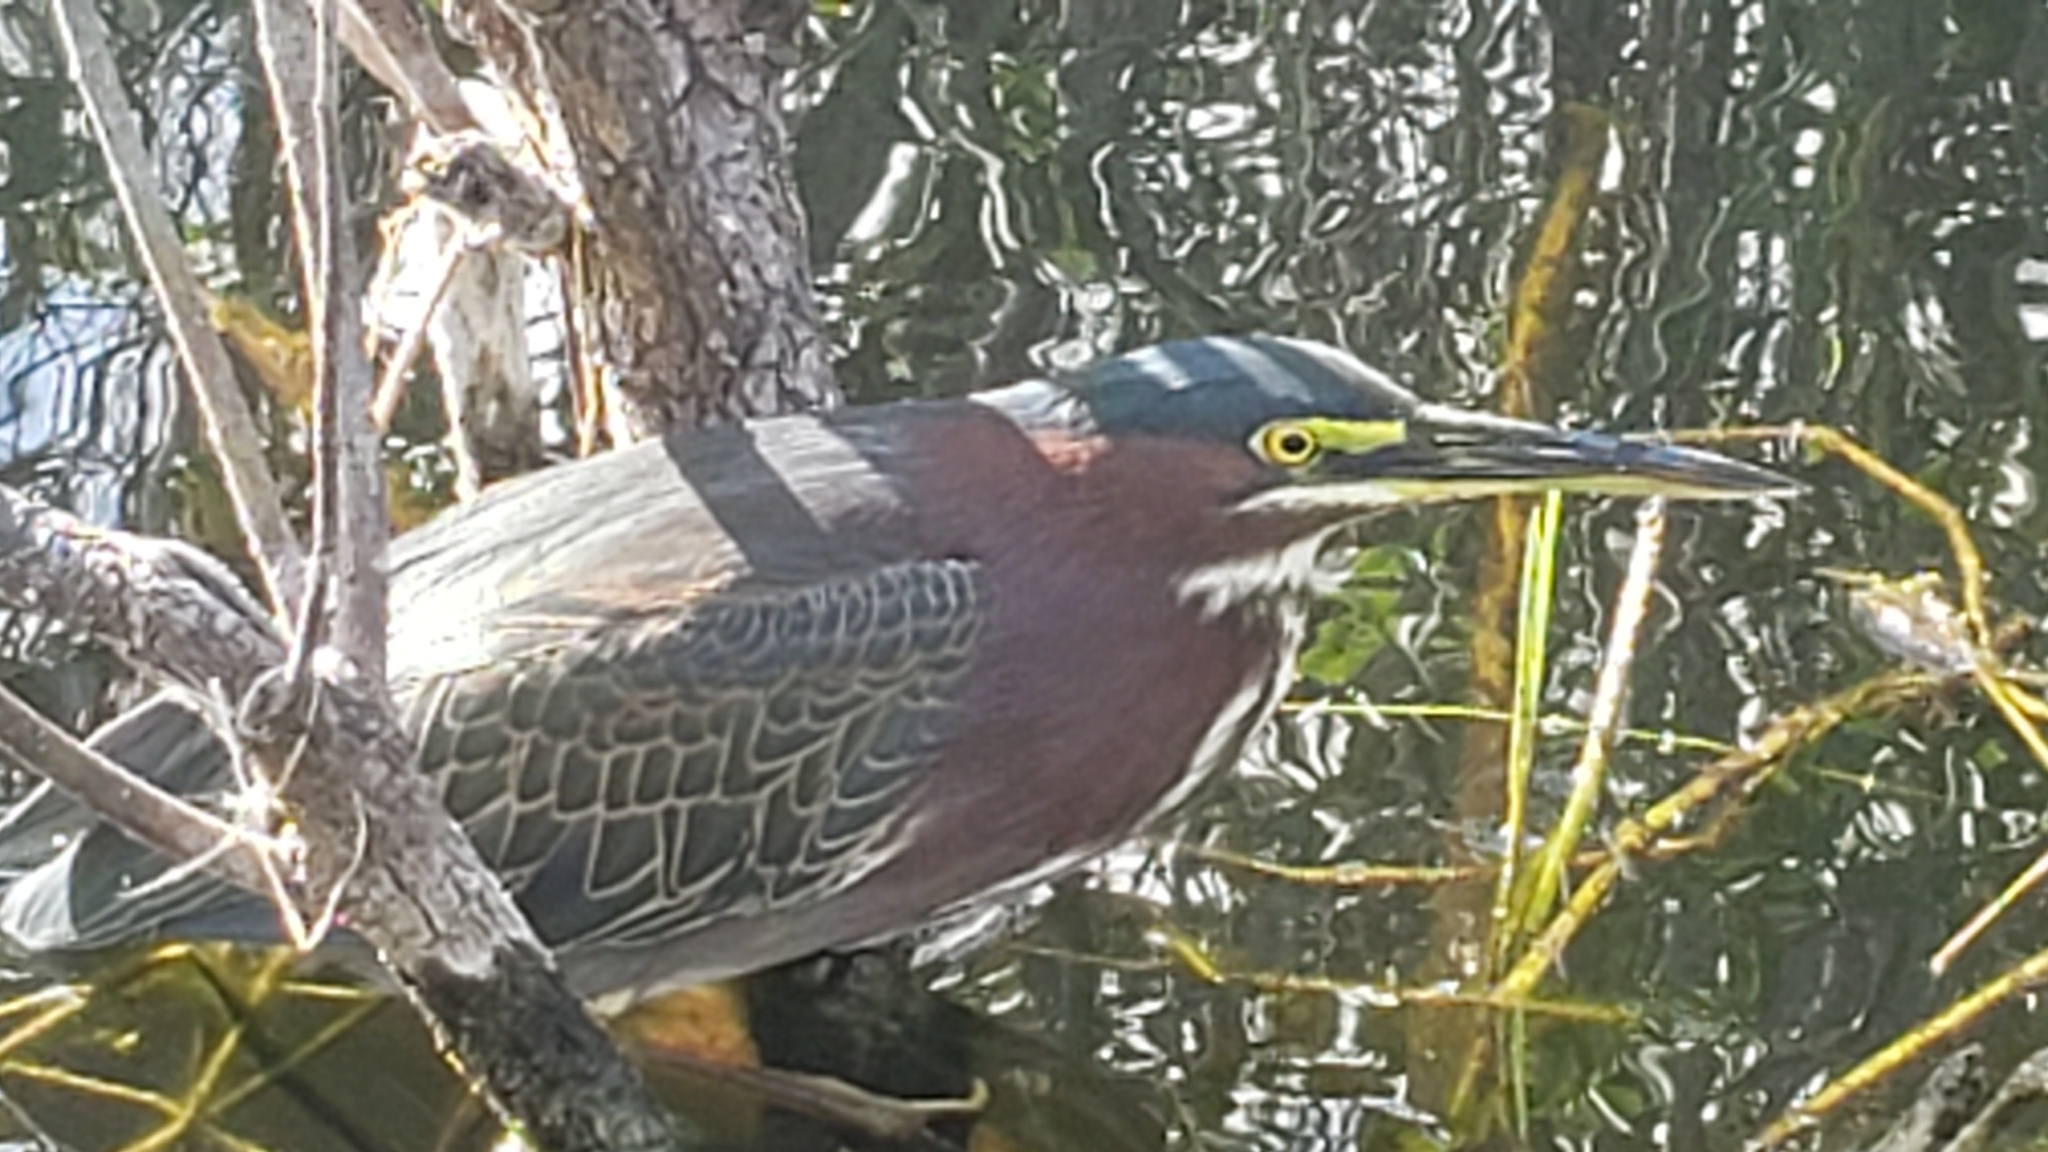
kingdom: Animalia
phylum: Chordata
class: Aves
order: Pelecaniformes
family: Ardeidae
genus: Butorides
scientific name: Butorides virescens
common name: Green heron
